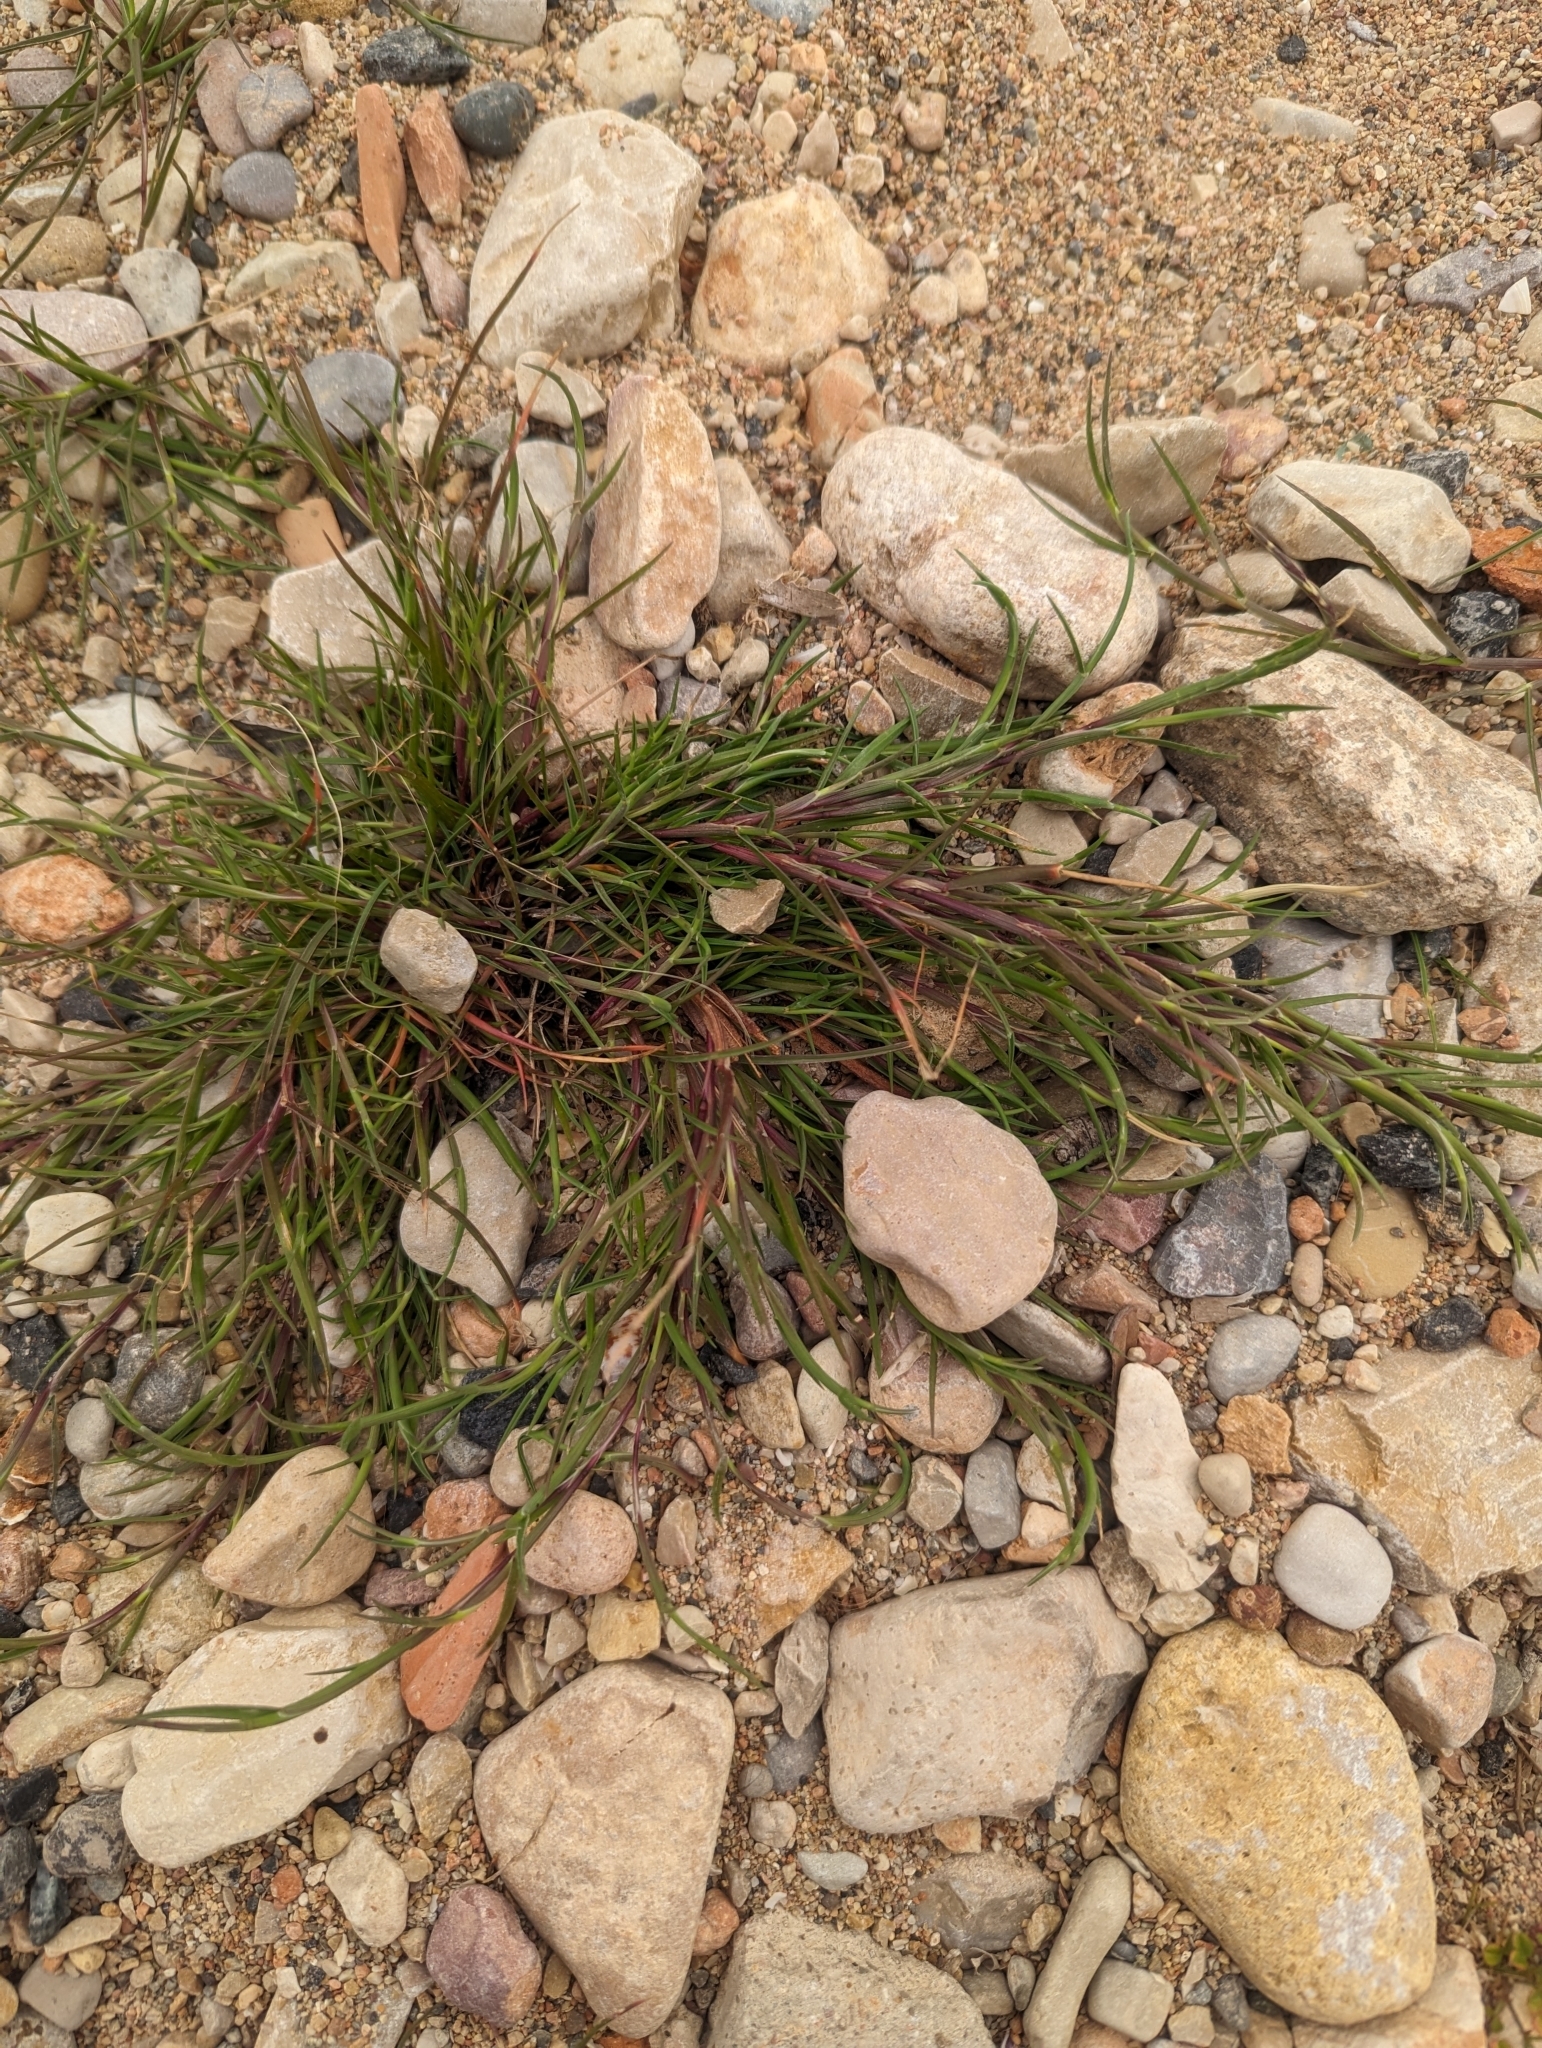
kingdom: Plantae
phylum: Tracheophyta
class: Liliopsida
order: Poales
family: Poaceae
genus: Parapholis
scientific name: Parapholis incurva
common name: Curved sicklegrass
